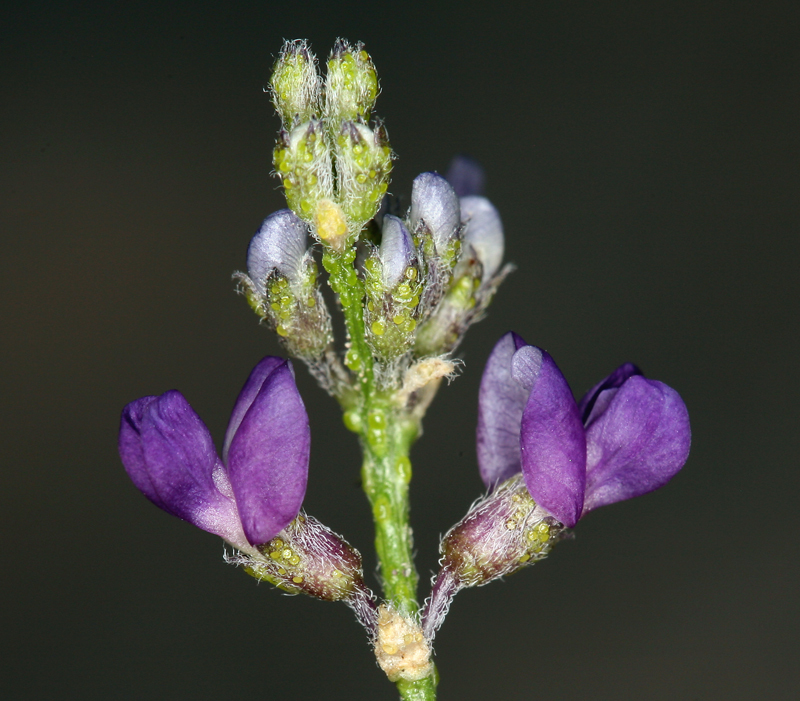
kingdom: Plantae
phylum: Tracheophyta
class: Magnoliopsida
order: Fabales
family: Fabaceae
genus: Ladeania
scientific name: Ladeania lanceolata
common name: Dune scurf-pea
